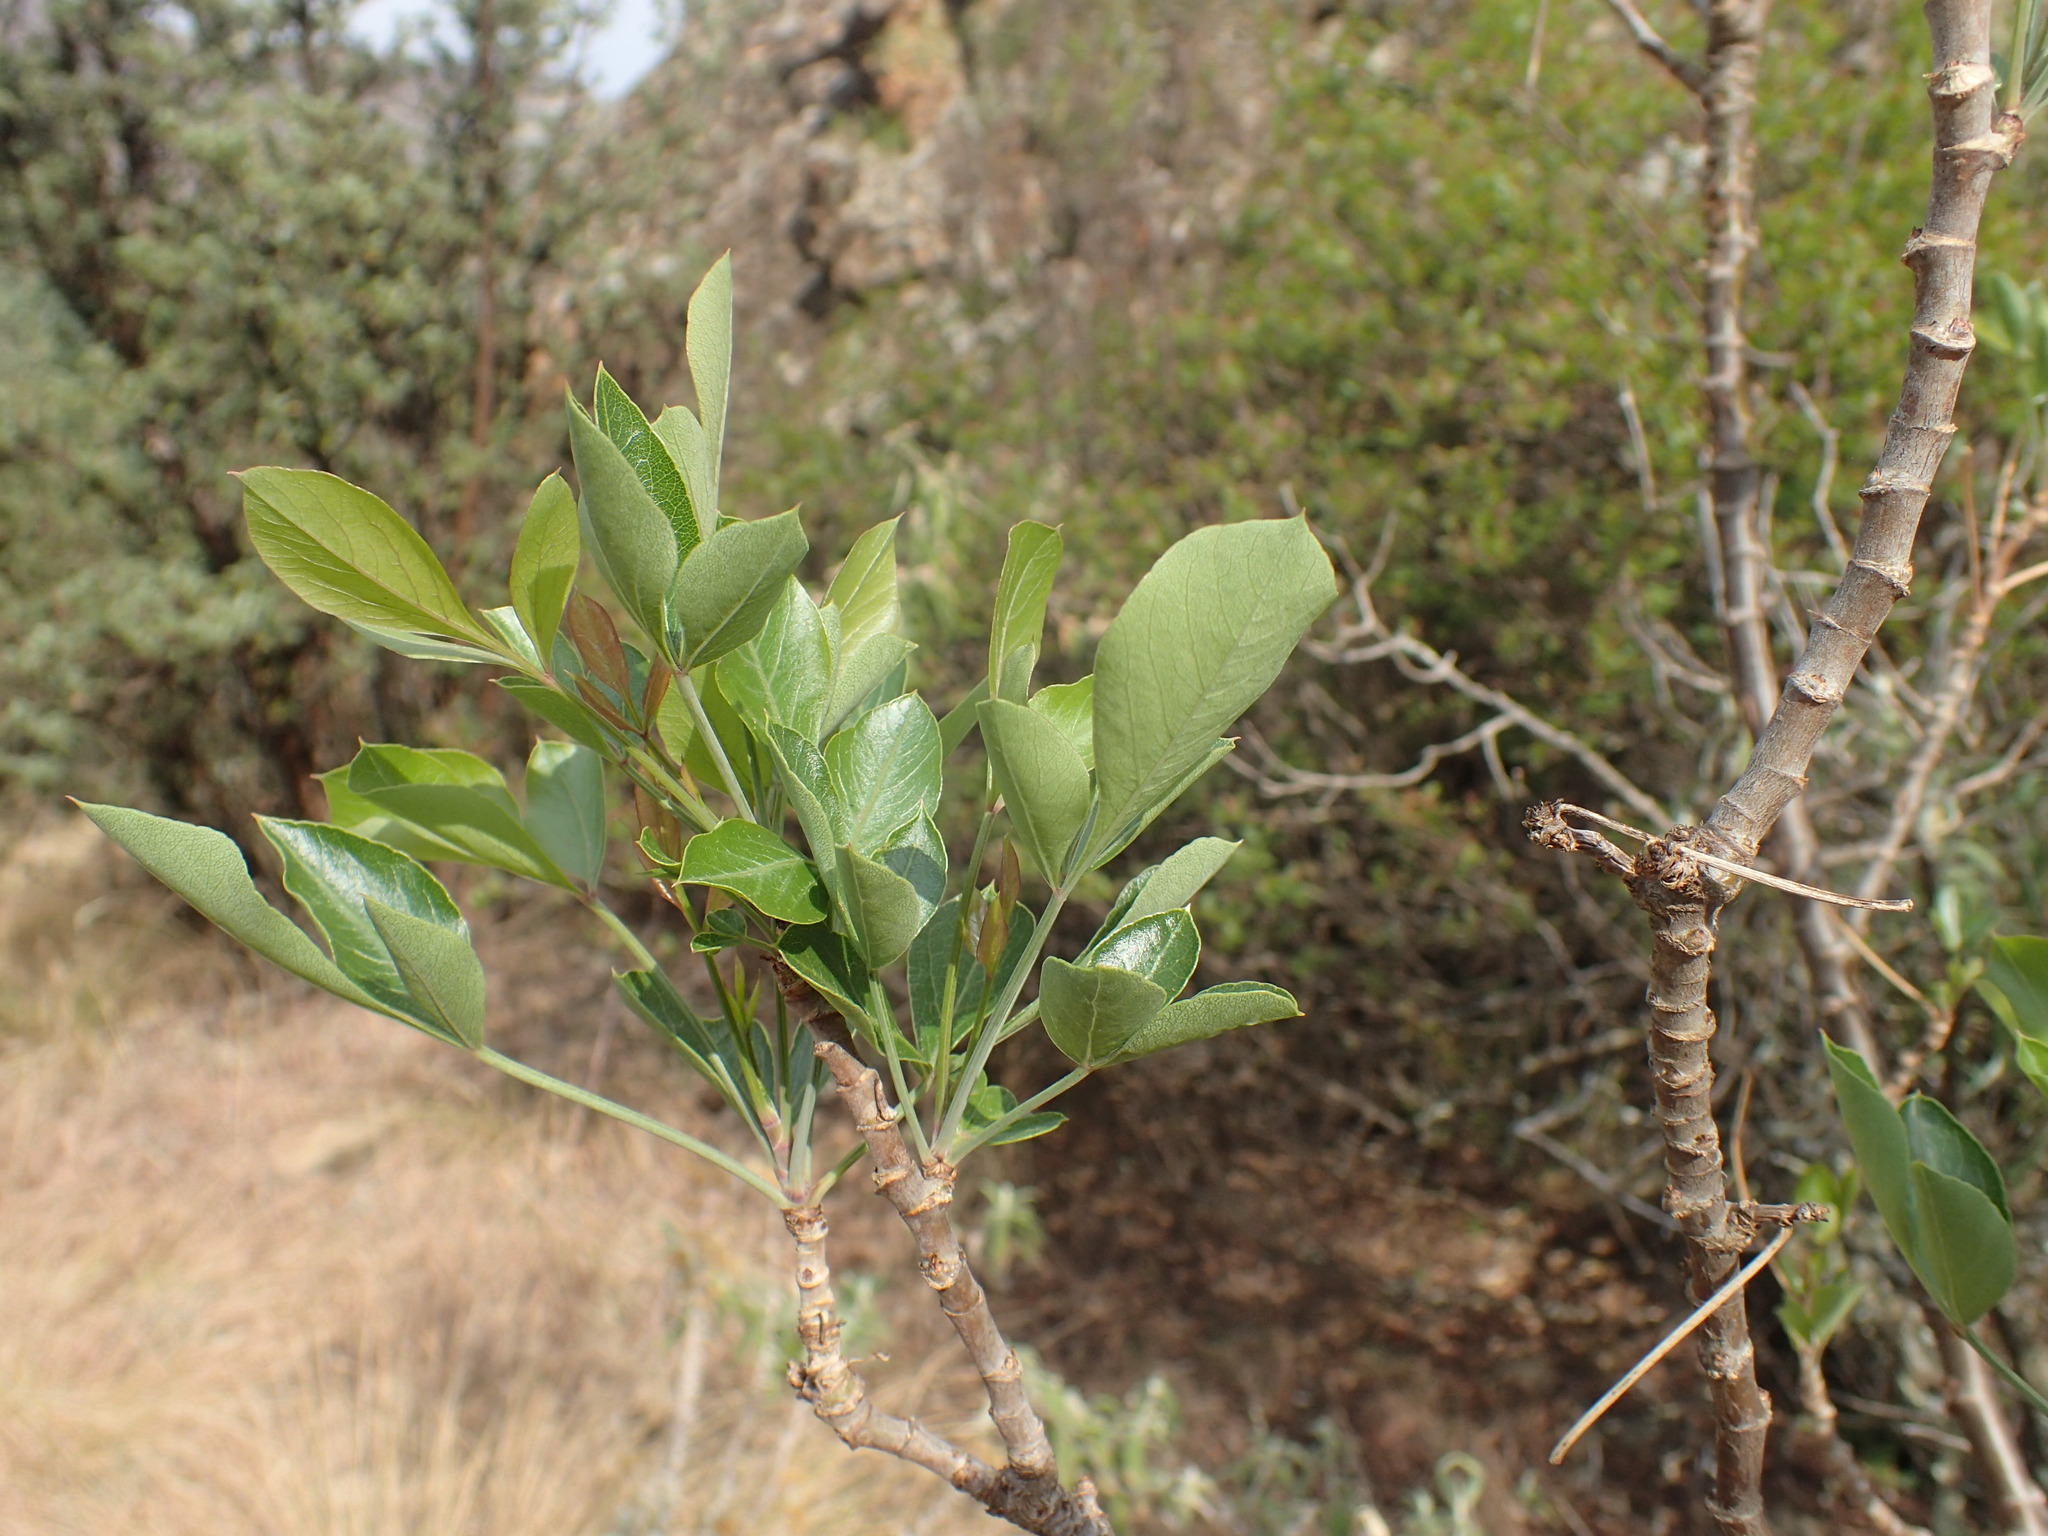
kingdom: Plantae
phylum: Tracheophyta
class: Magnoliopsida
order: Apiales
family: Apiaceae
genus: Heteromorpha
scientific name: Heteromorpha arborescens
